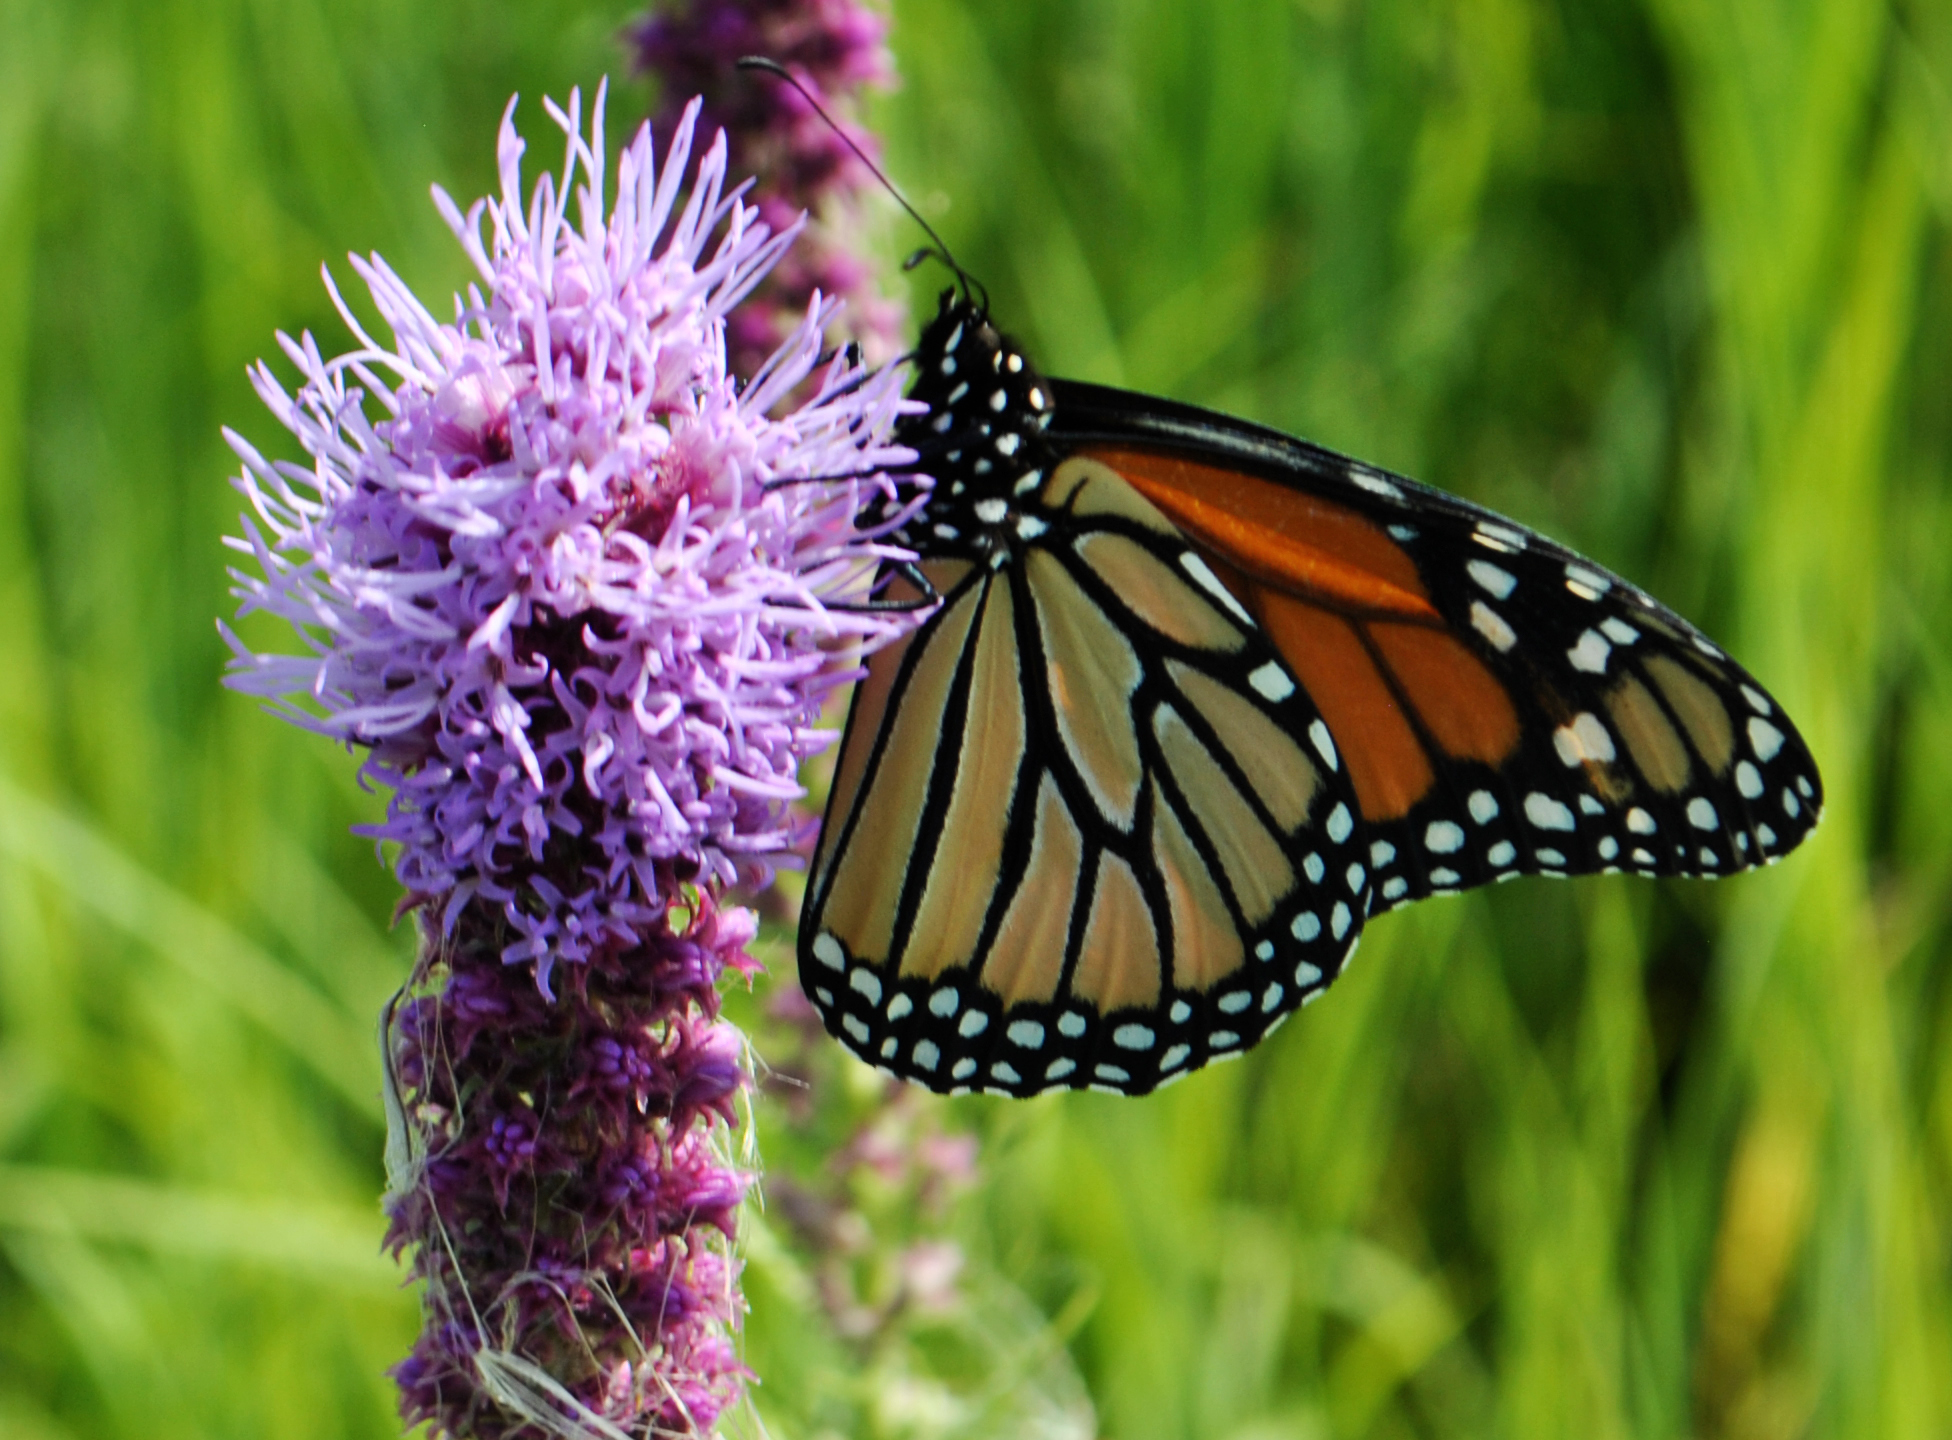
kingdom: Animalia
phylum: Arthropoda
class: Insecta
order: Lepidoptera
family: Nymphalidae
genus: Danaus
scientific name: Danaus plexippus
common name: Monarch
